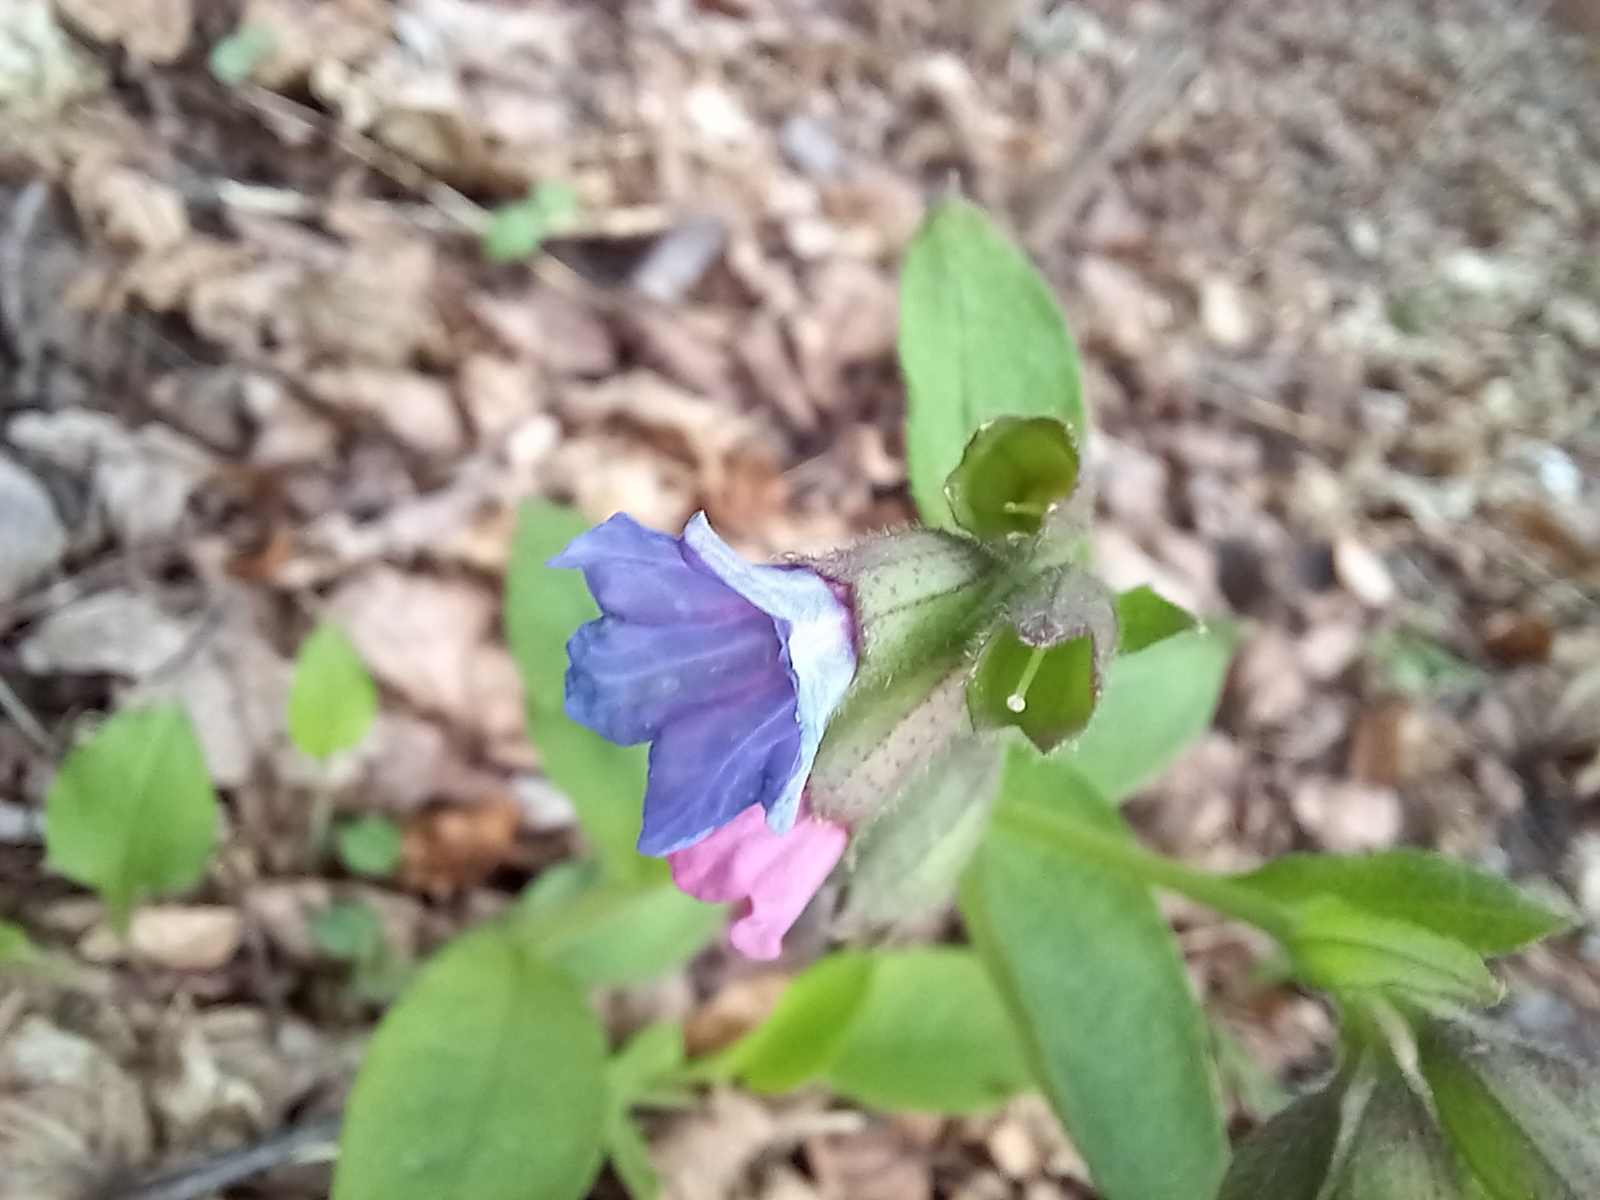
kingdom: Plantae
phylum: Tracheophyta
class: Magnoliopsida
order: Boraginales
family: Boraginaceae
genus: Pulmonaria
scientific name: Pulmonaria obscura
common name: Suffolk lungwort
